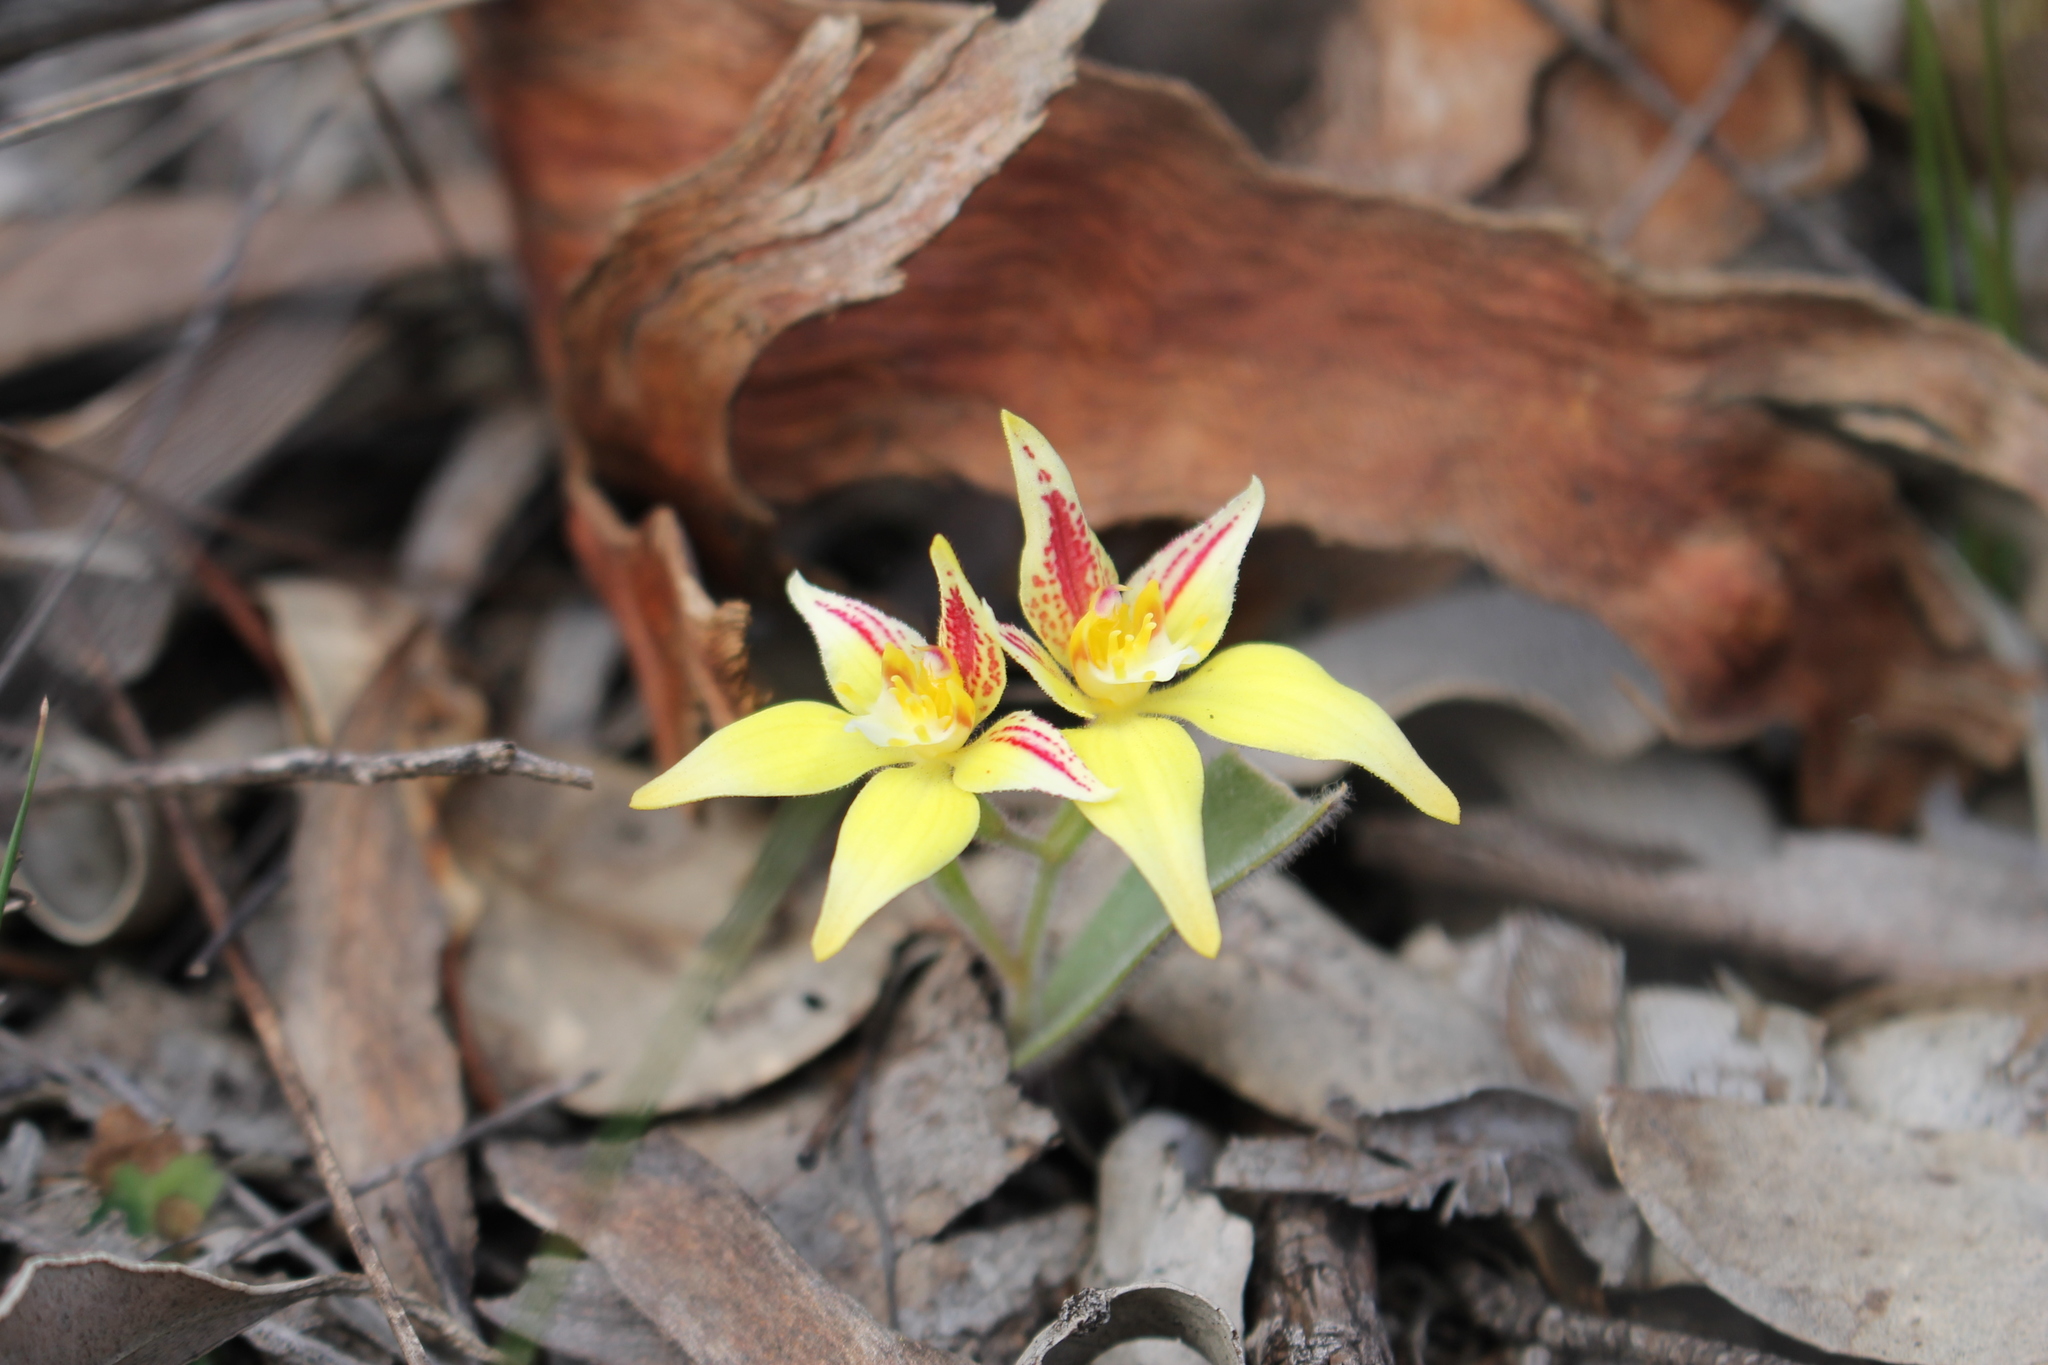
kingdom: Plantae
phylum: Tracheophyta
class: Liliopsida
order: Asparagales
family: Orchidaceae
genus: Caladenia
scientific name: Caladenia flava
